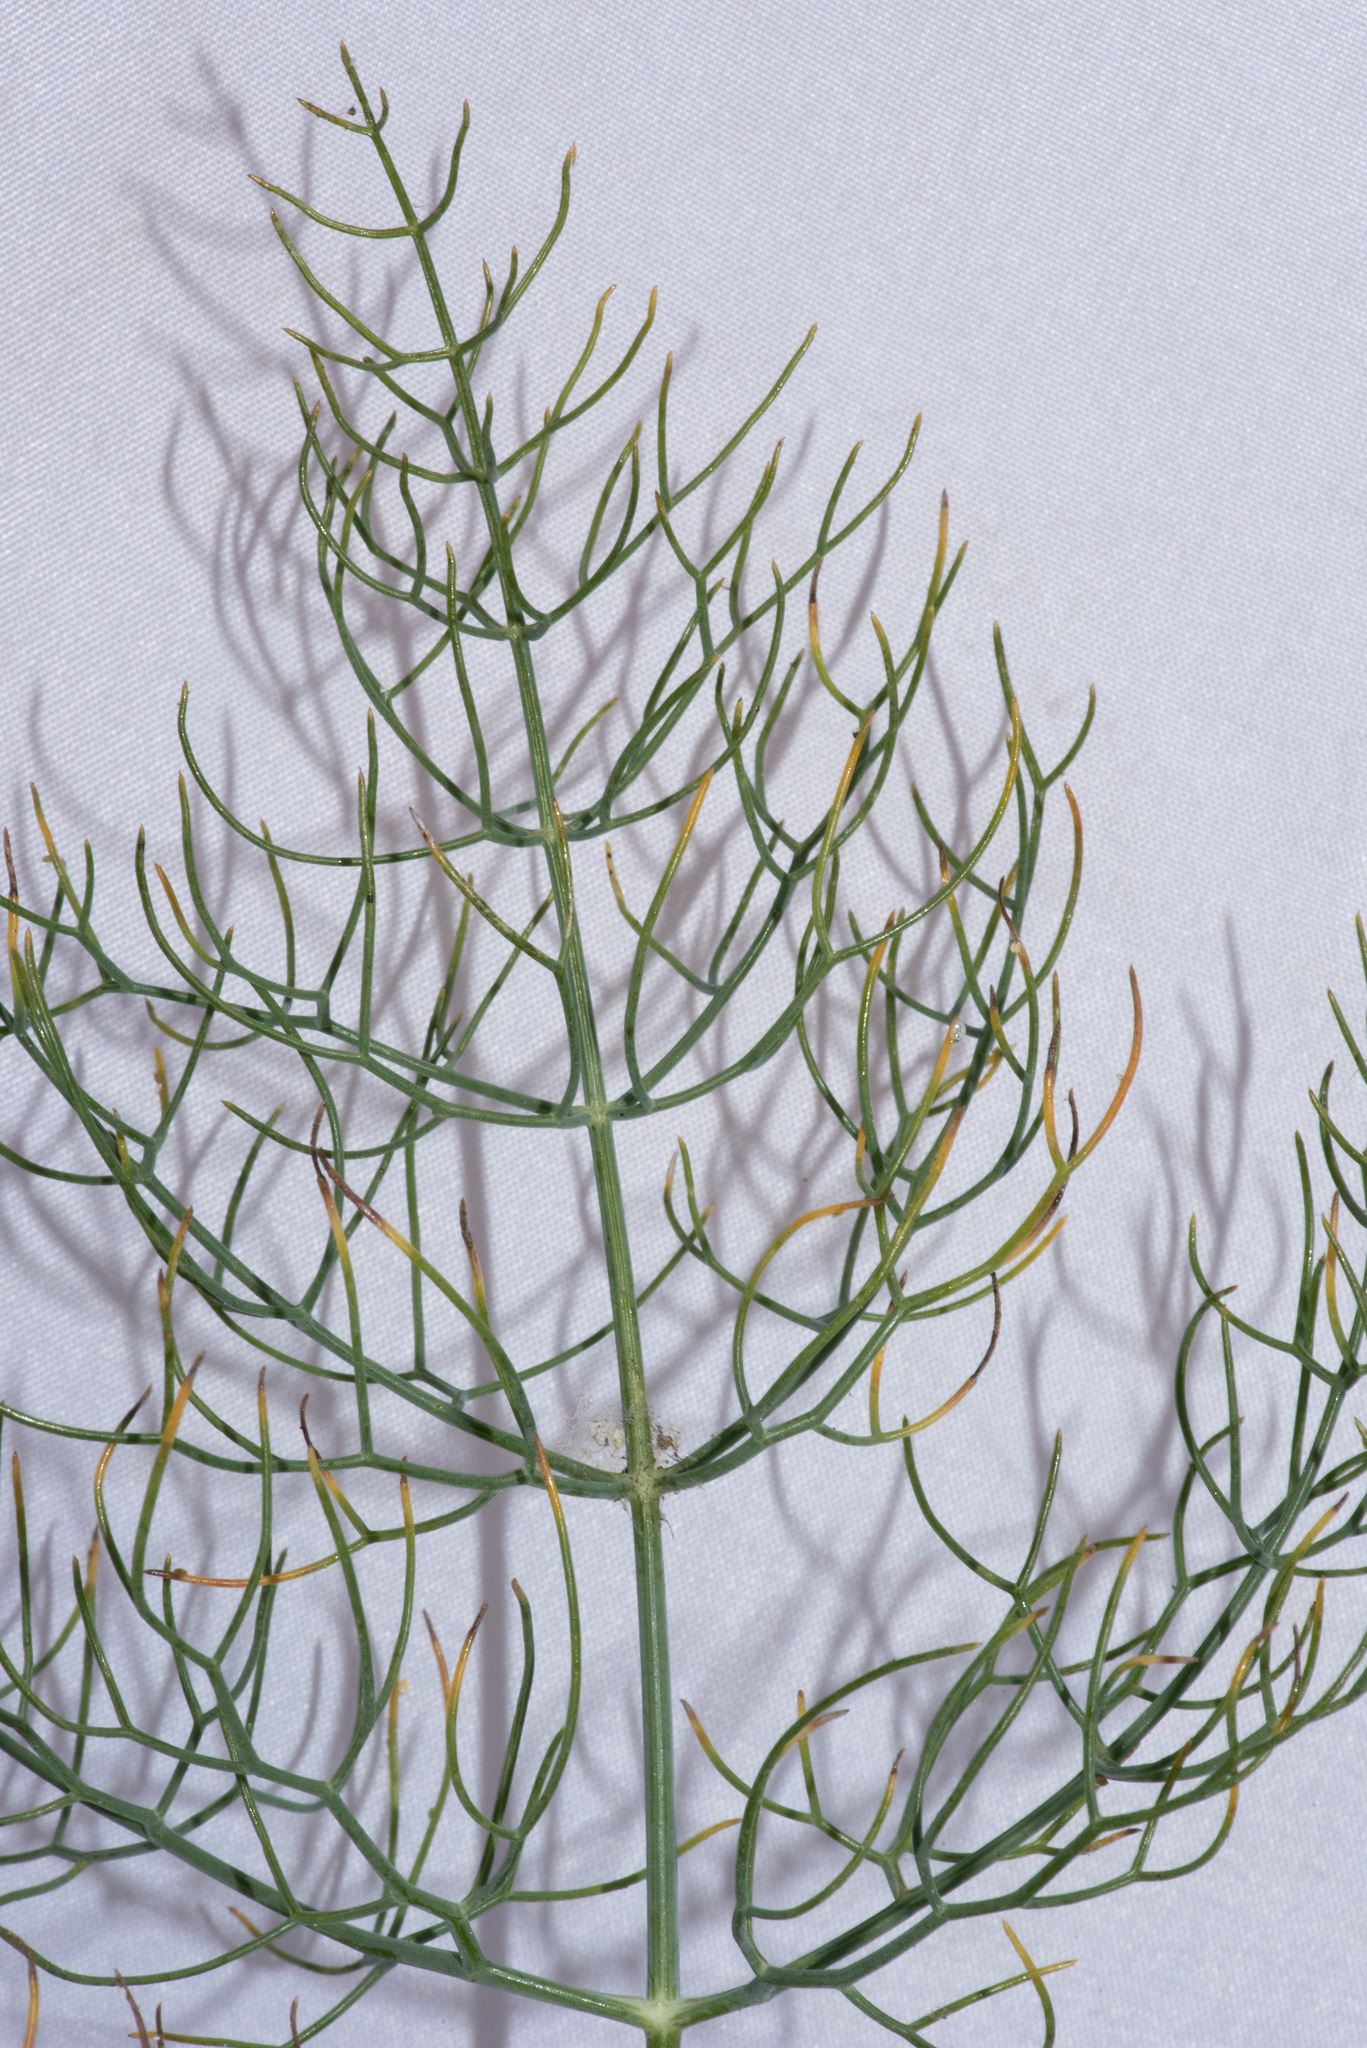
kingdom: Plantae
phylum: Tracheophyta
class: Magnoliopsida
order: Apiales
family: Apiaceae
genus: Foeniculum
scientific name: Foeniculum vulgare
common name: Fennel
